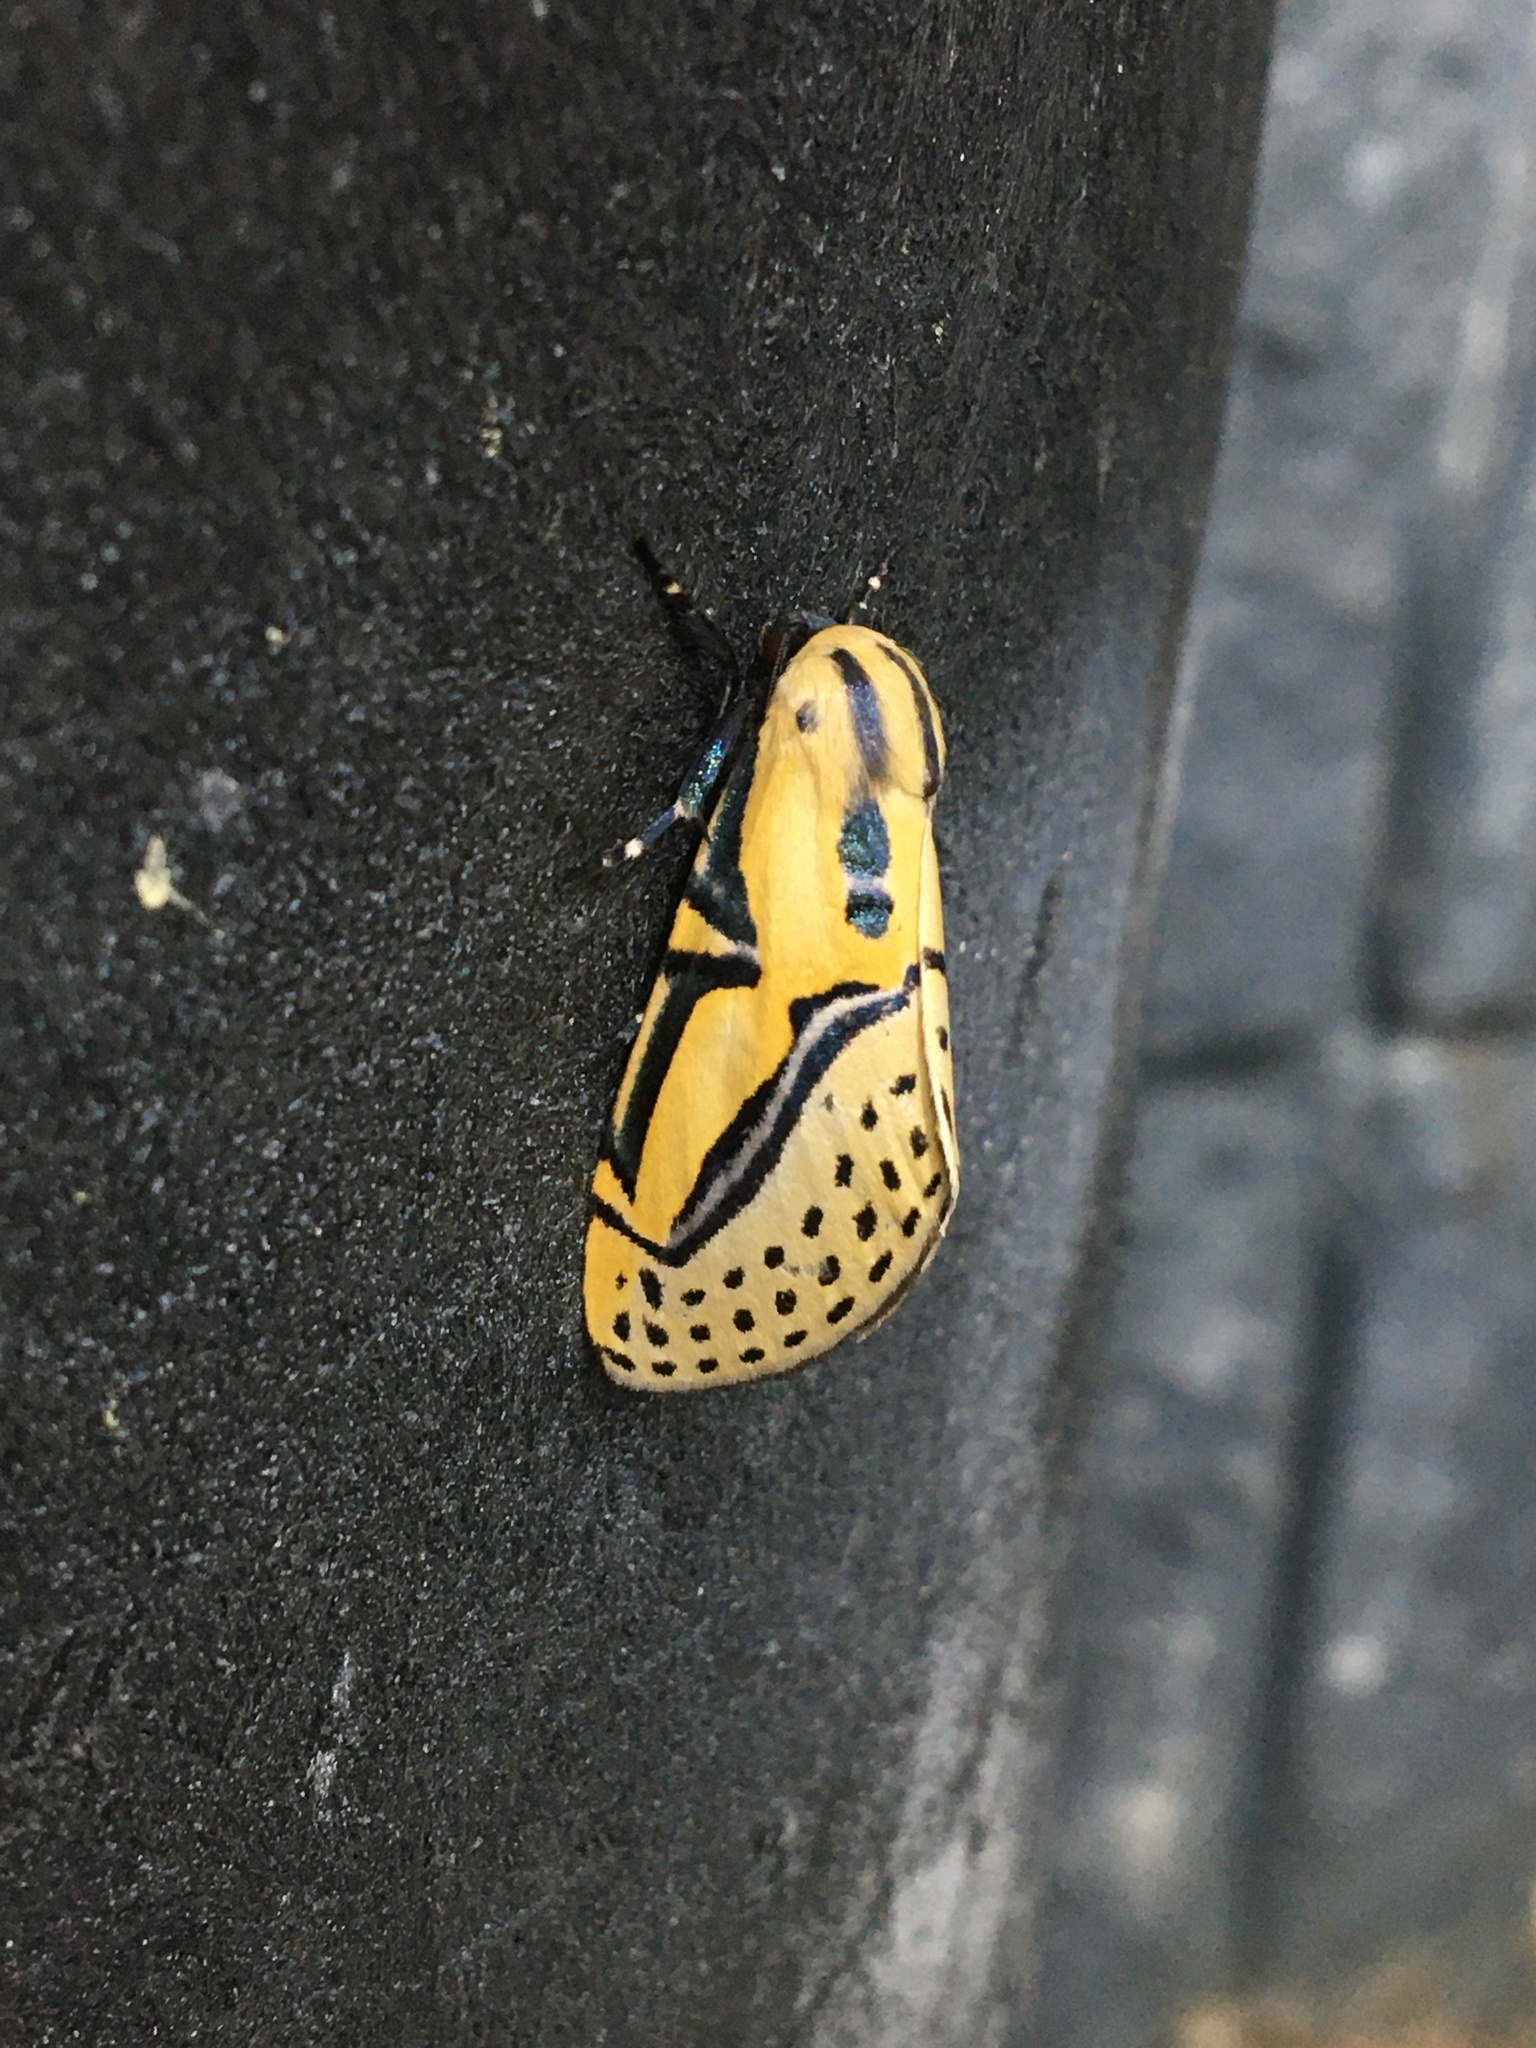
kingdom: Animalia
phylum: Arthropoda
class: Insecta
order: Lepidoptera
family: Erebidae
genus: Diphthera
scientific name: Diphthera festiva
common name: Hieroglyphic moth
